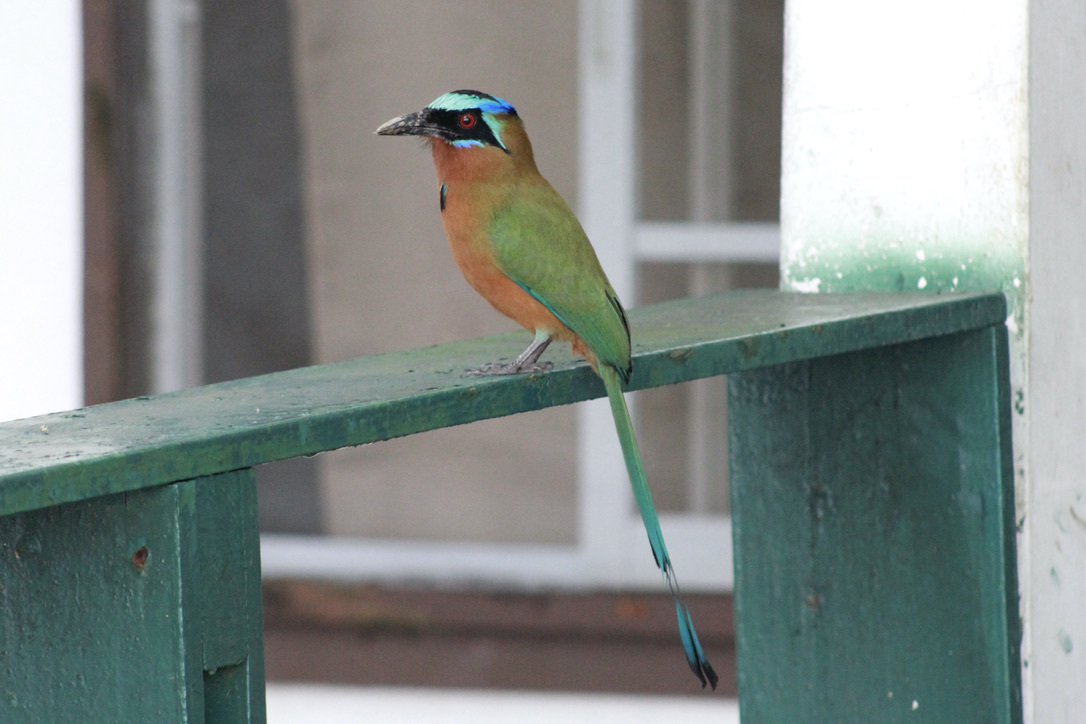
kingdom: Animalia
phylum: Chordata
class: Aves
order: Coraciiformes
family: Momotidae
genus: Momotus
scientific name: Momotus bahamensis
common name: Trinidad motmot
